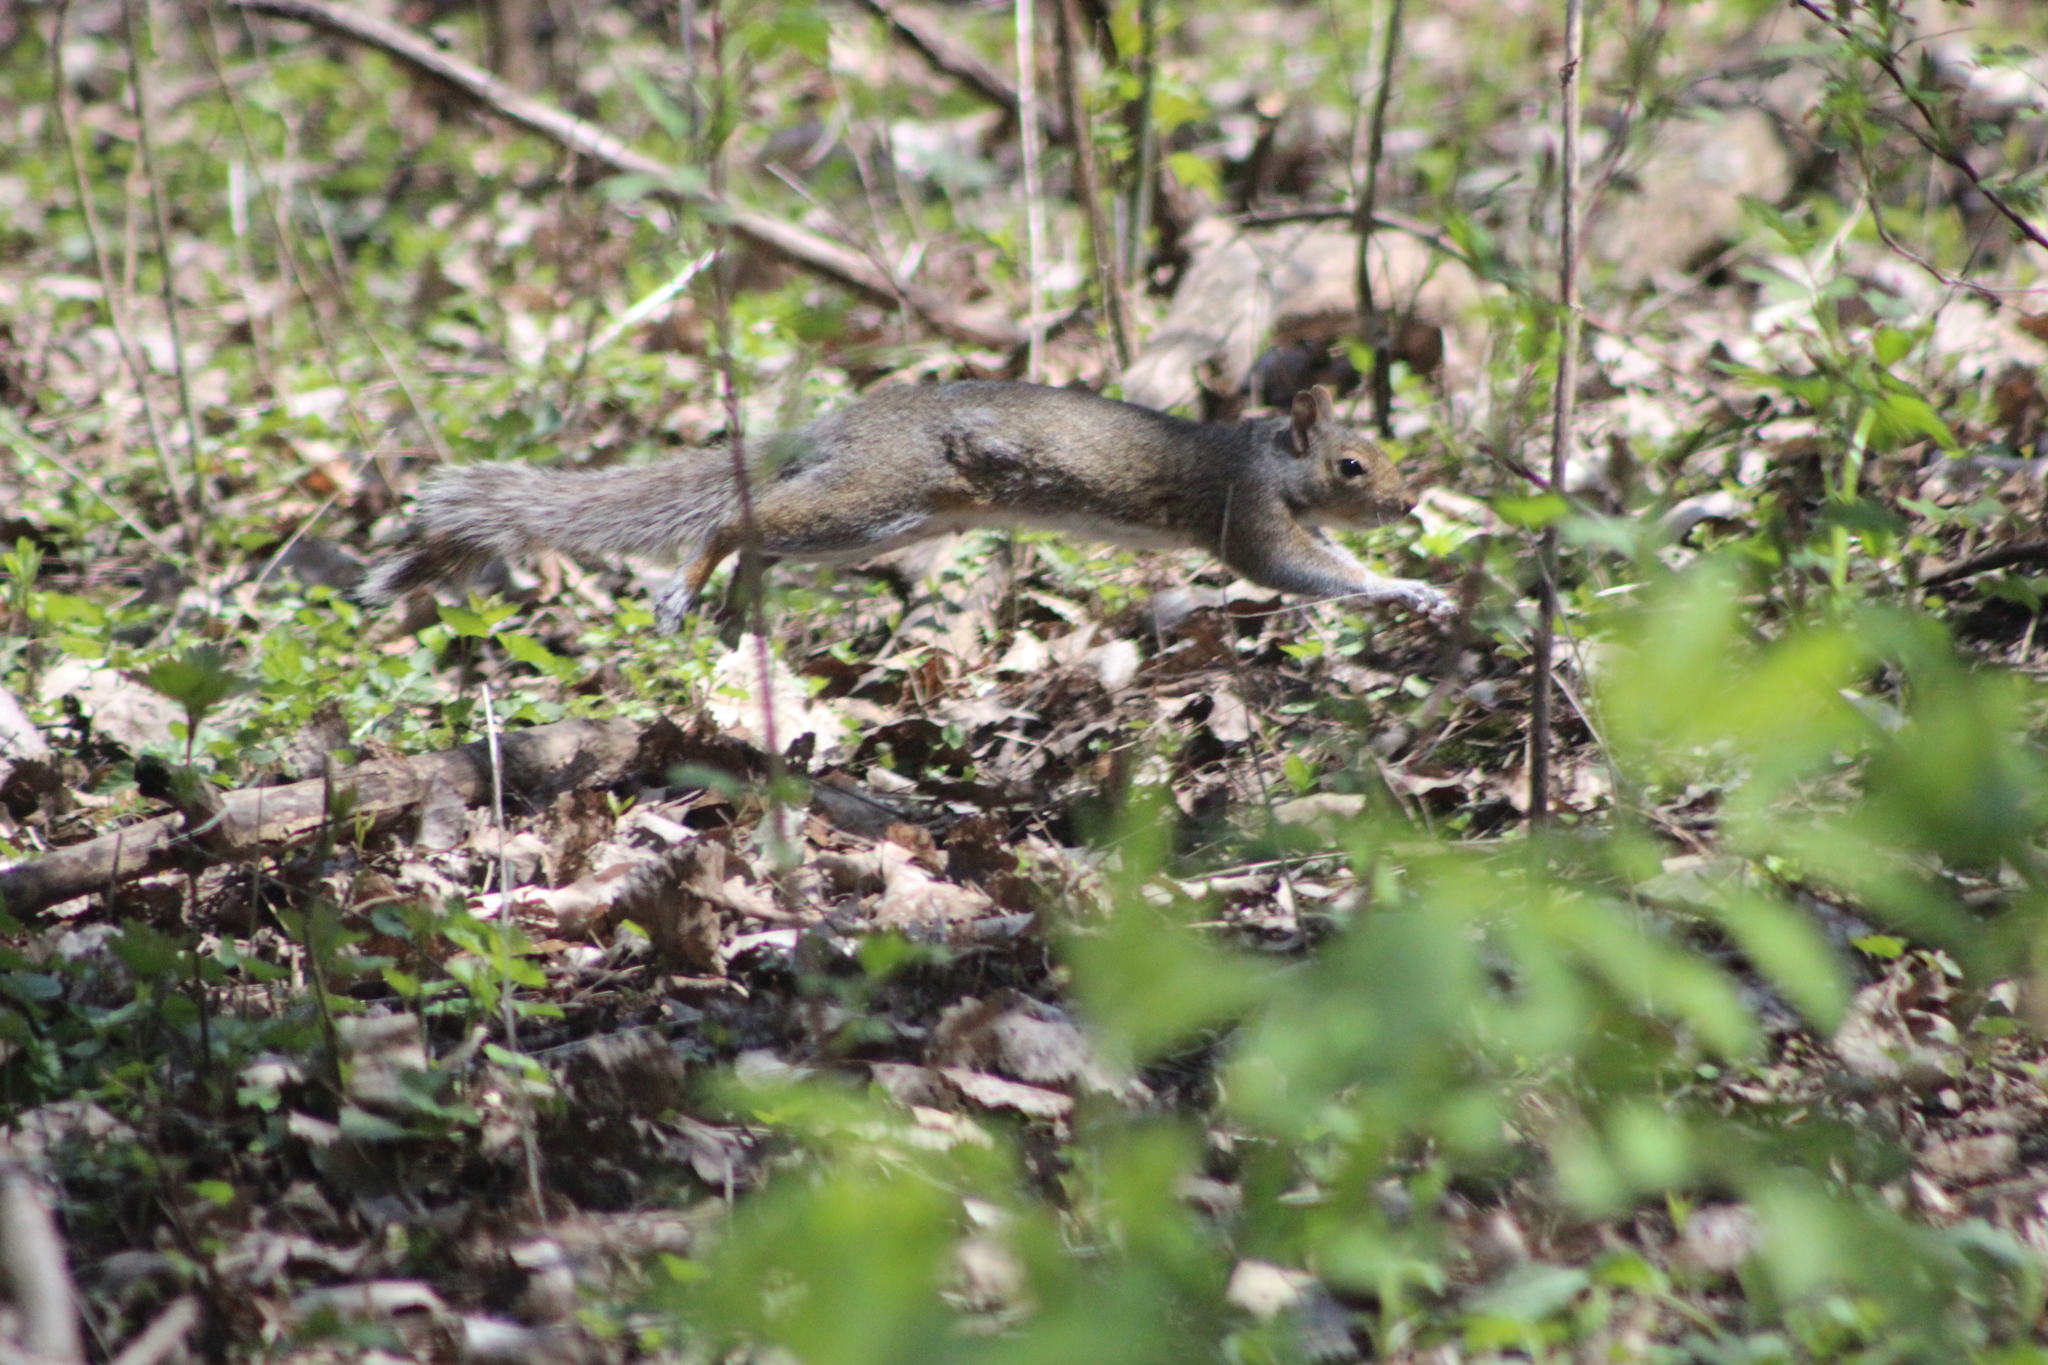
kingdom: Animalia
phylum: Chordata
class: Mammalia
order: Rodentia
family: Sciuridae
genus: Sciurus
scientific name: Sciurus carolinensis
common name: Eastern gray squirrel
